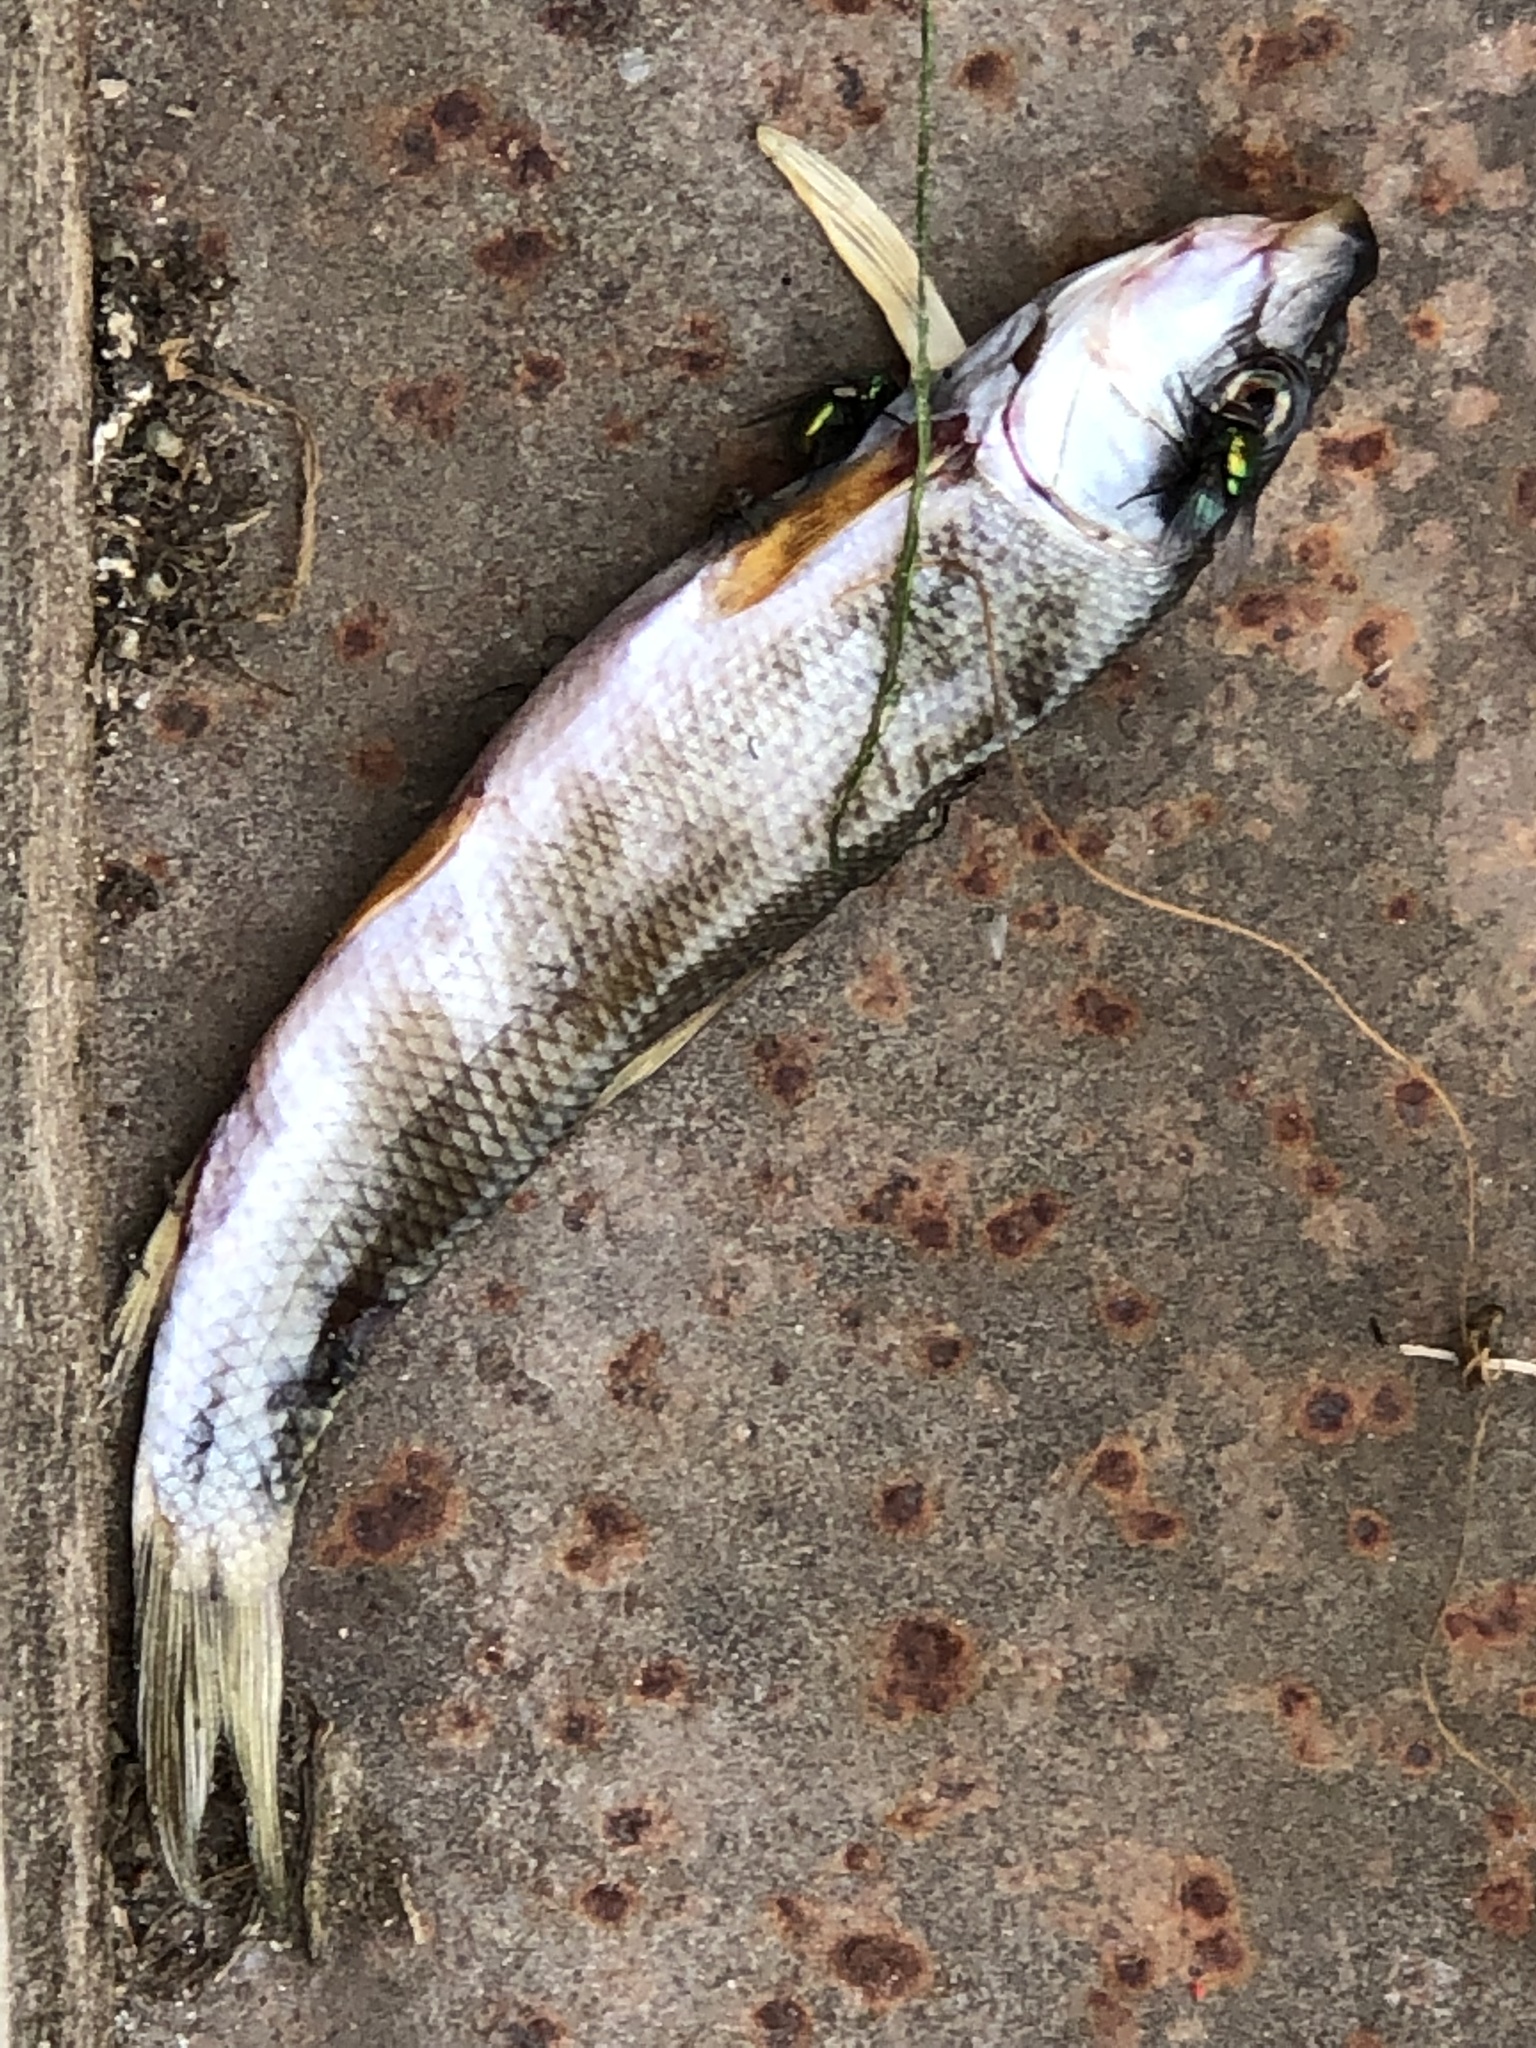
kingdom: Animalia
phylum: Chordata
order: Cypriniformes
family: Catostomidae
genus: Catostomus
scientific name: Catostomus commersonii
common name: White sucker
